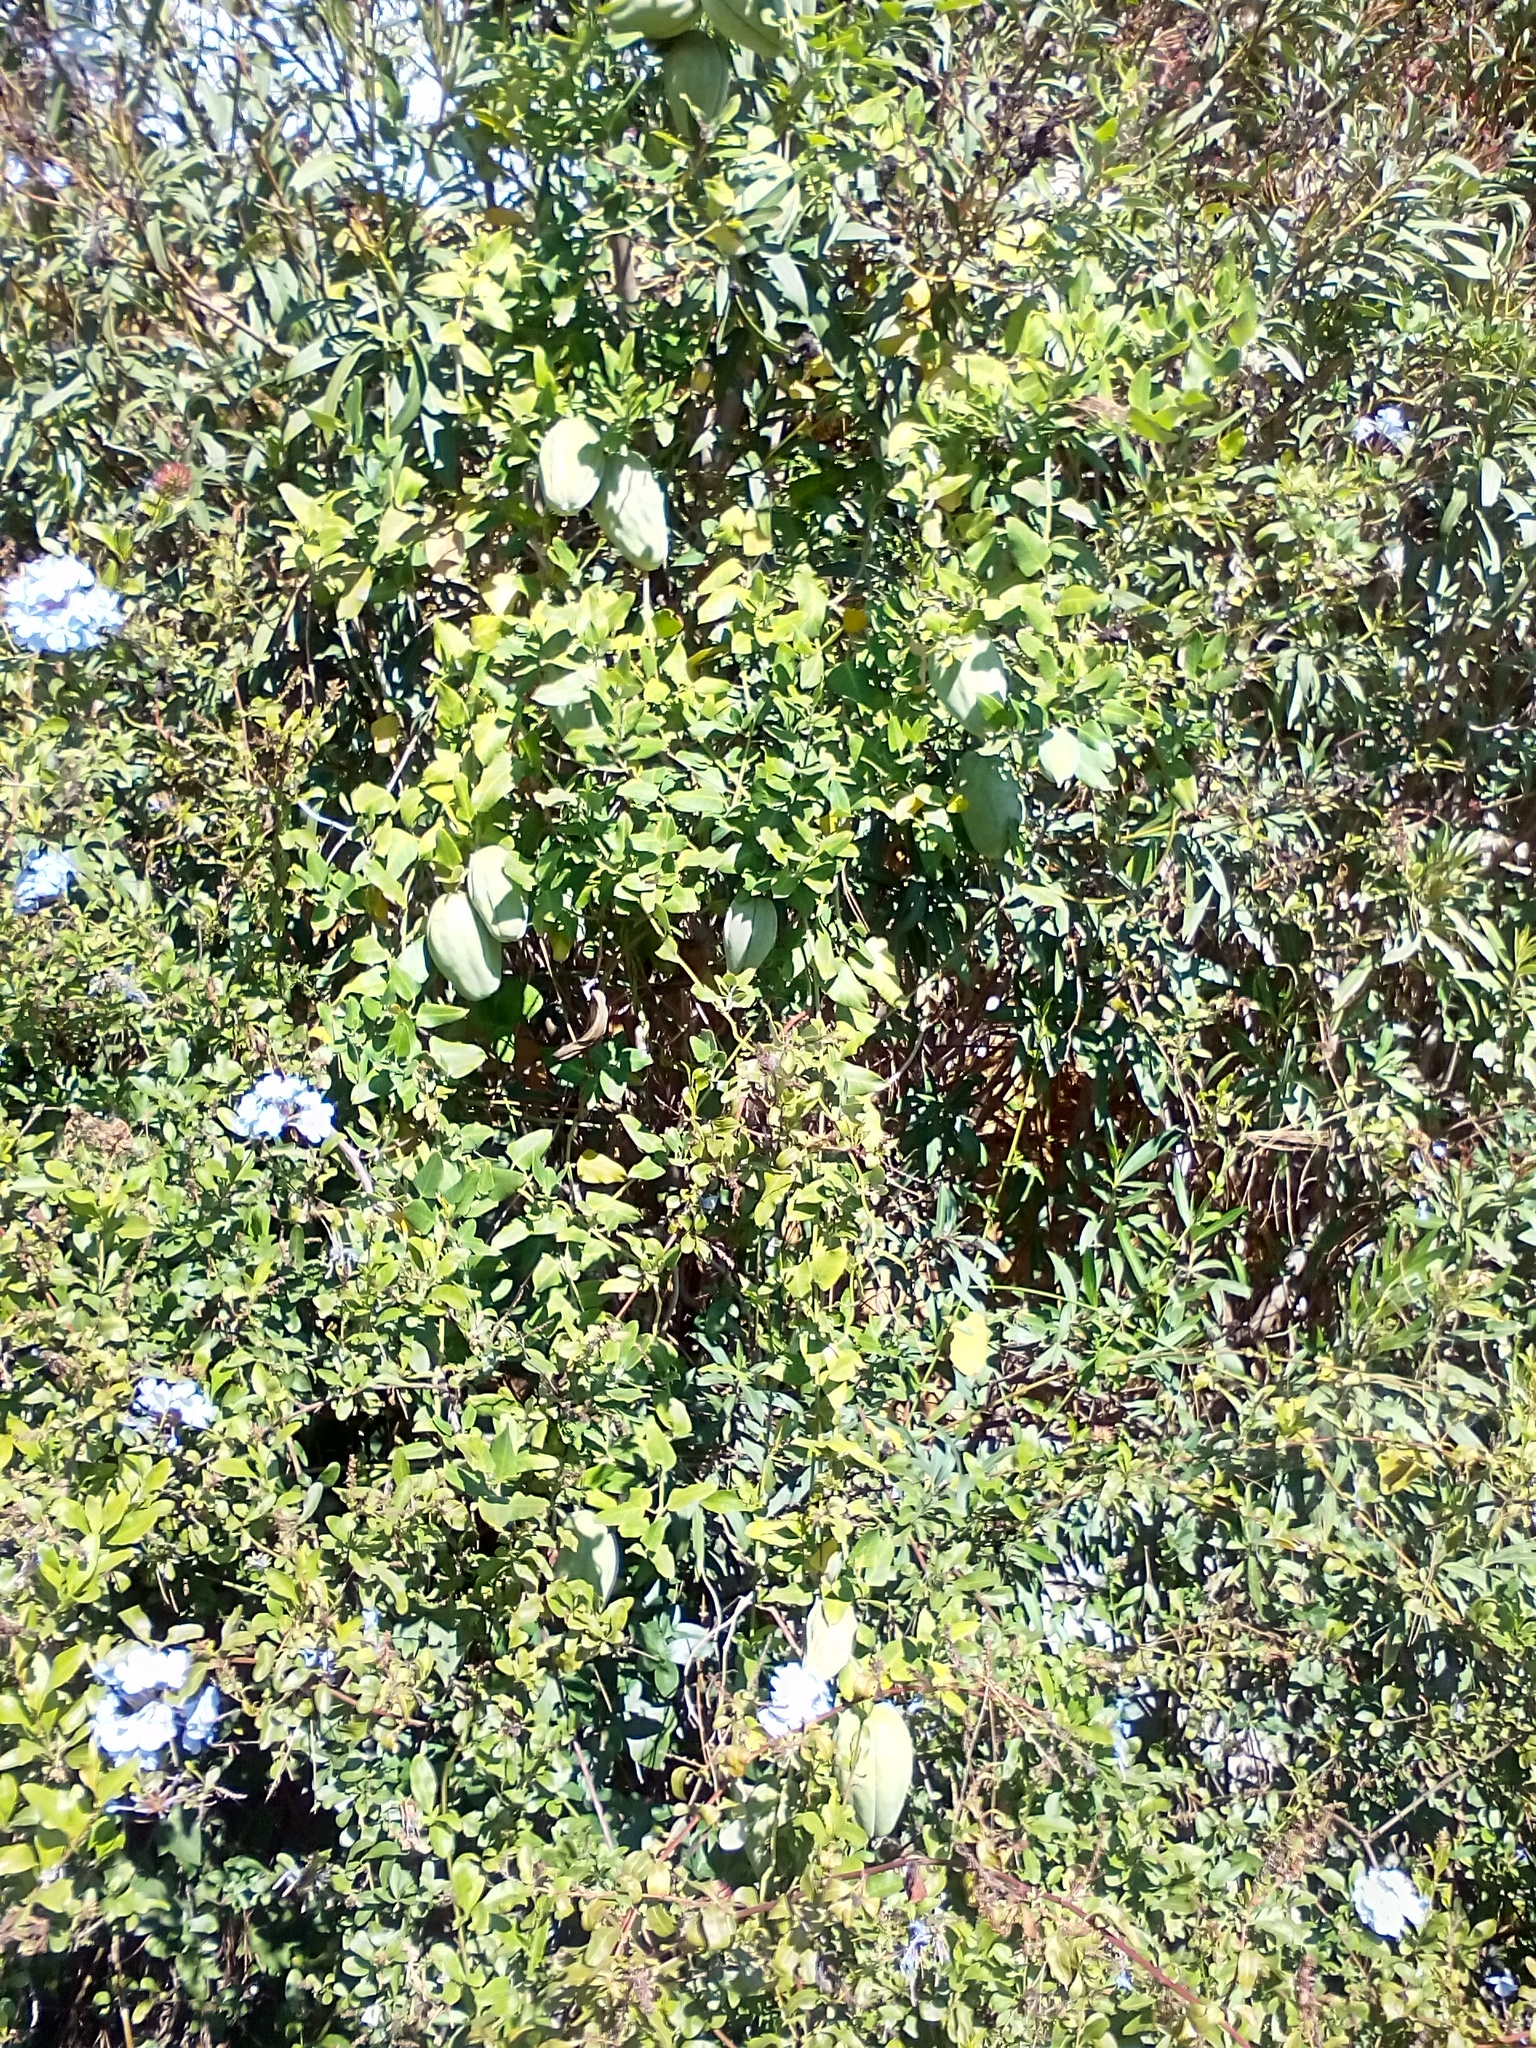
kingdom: Plantae
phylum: Tracheophyta
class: Magnoliopsida
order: Gentianales
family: Apocynaceae
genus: Araujia
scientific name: Araujia sericifera
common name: White bladderflower
